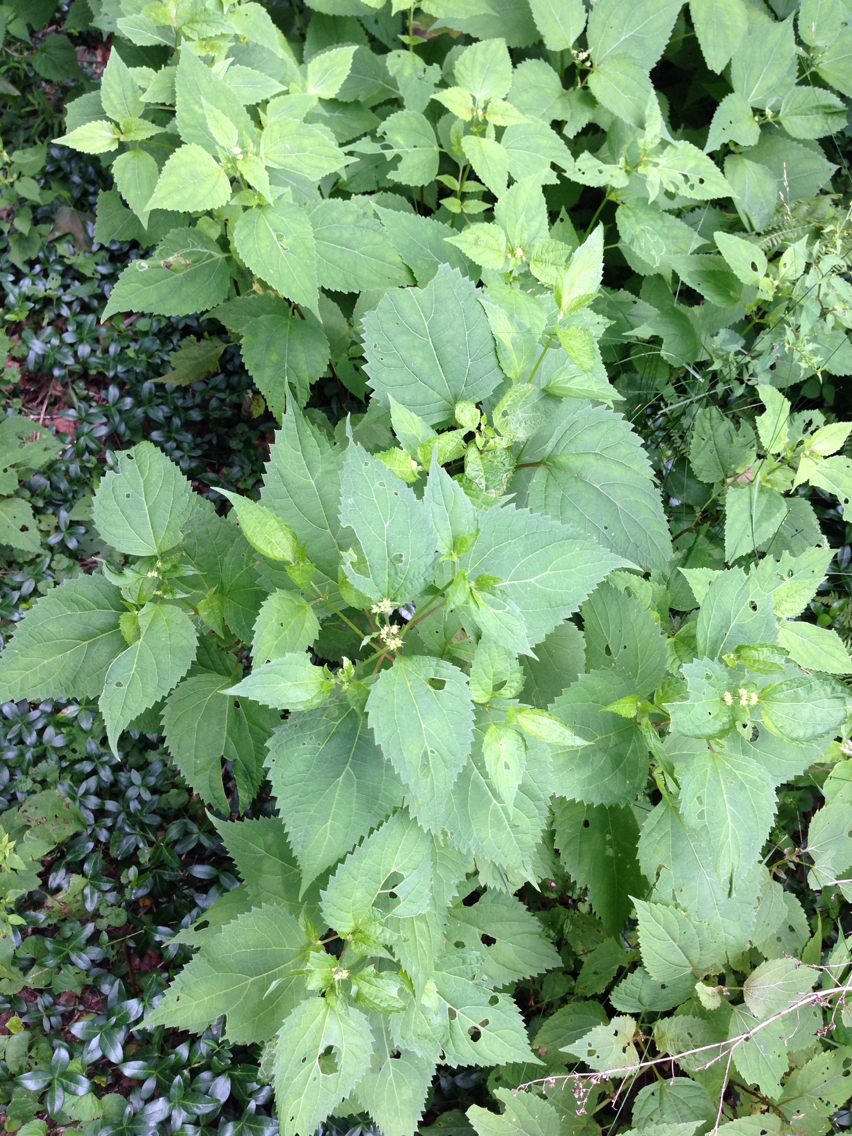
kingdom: Plantae
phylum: Tracheophyta
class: Magnoliopsida
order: Asterales
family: Asteraceae
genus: Ageratina
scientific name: Ageratina altissima
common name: White snakeroot
